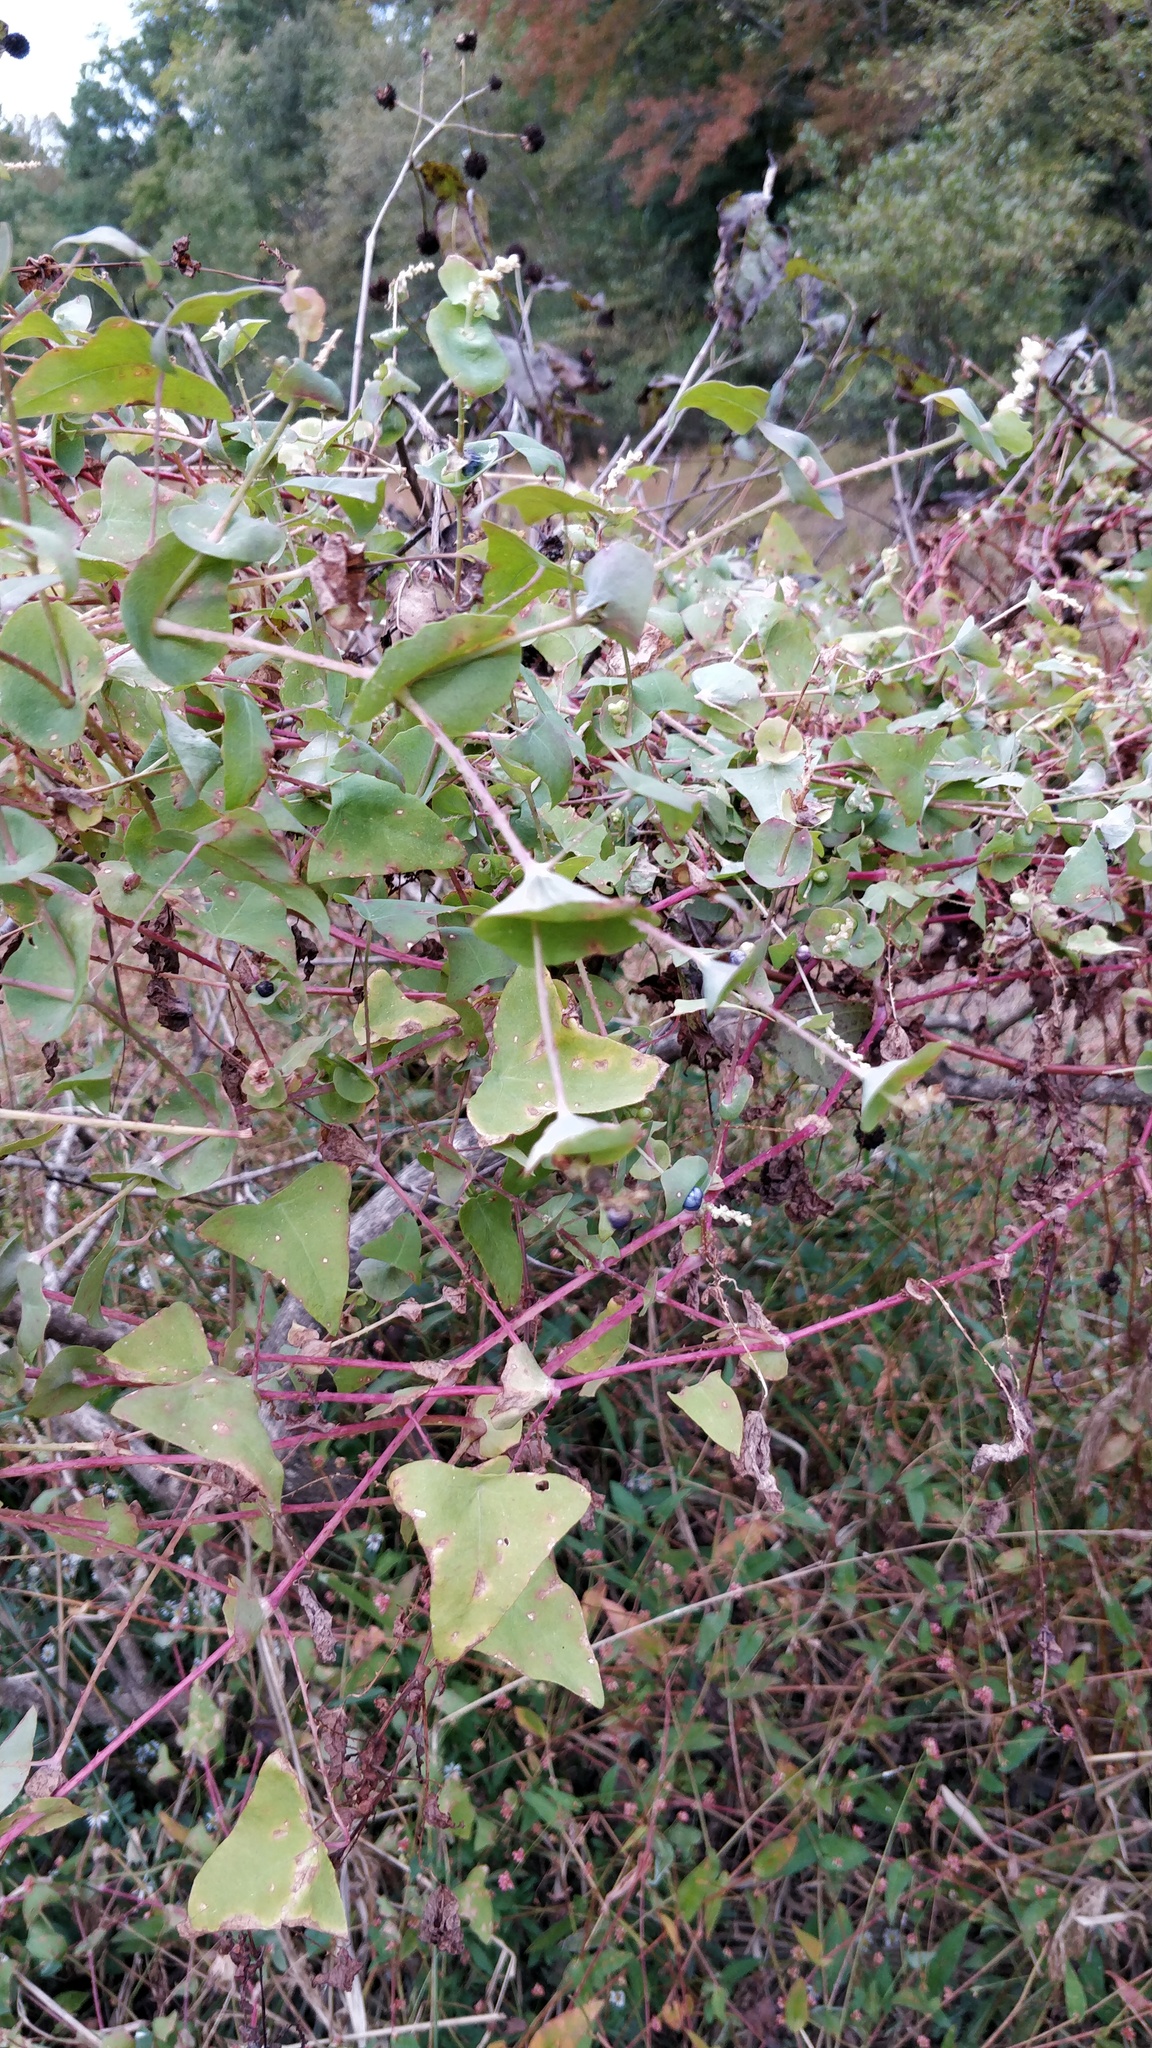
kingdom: Plantae
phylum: Tracheophyta
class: Magnoliopsida
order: Caryophyllales
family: Polygonaceae
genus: Persicaria
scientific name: Persicaria perfoliata
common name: Asiatic tearthumb
